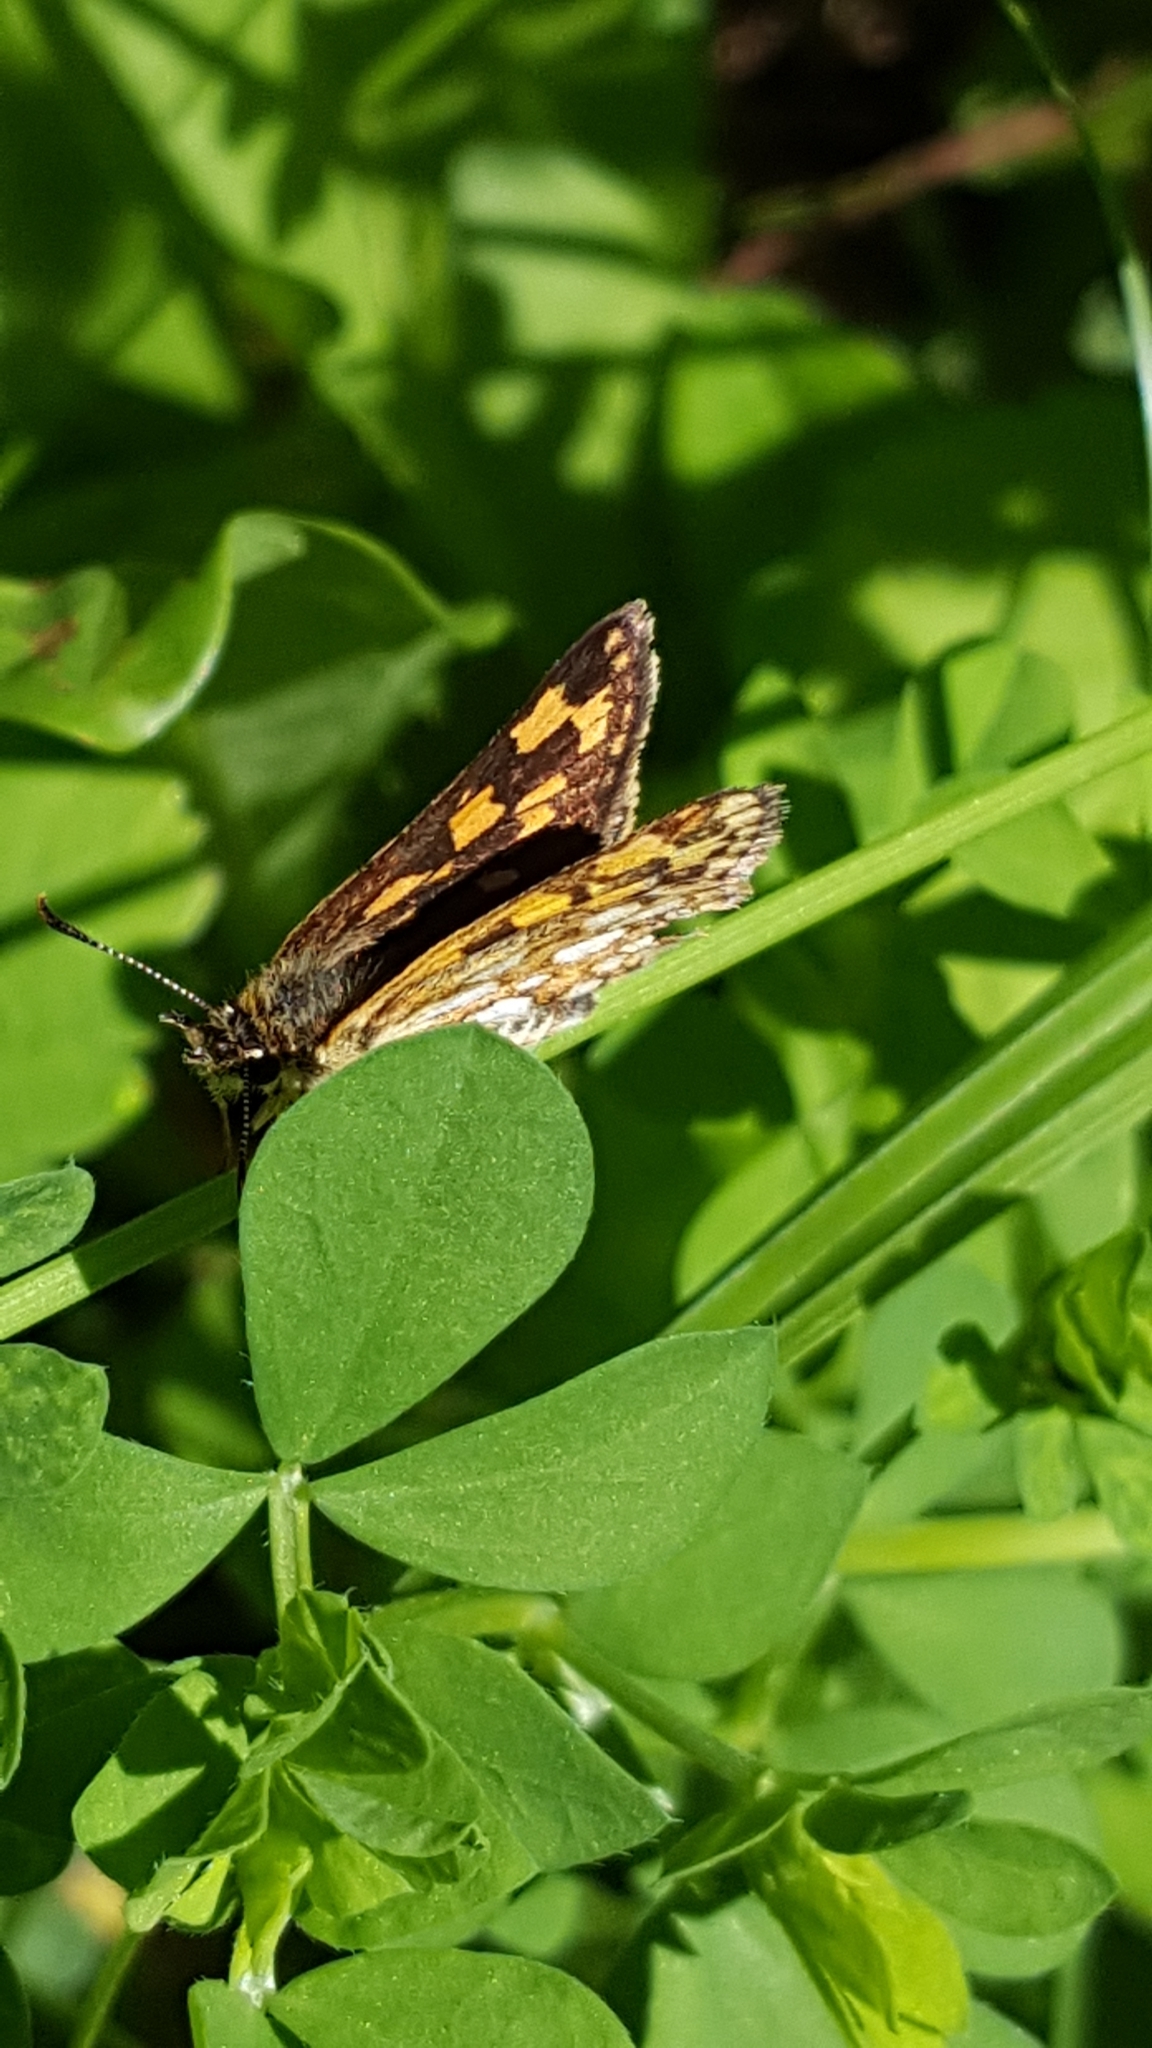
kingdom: Animalia
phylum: Arthropoda
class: Insecta
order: Lepidoptera
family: Hesperiidae
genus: Carterocephalus
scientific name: Carterocephalus mandan
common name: Arctic skipperling
